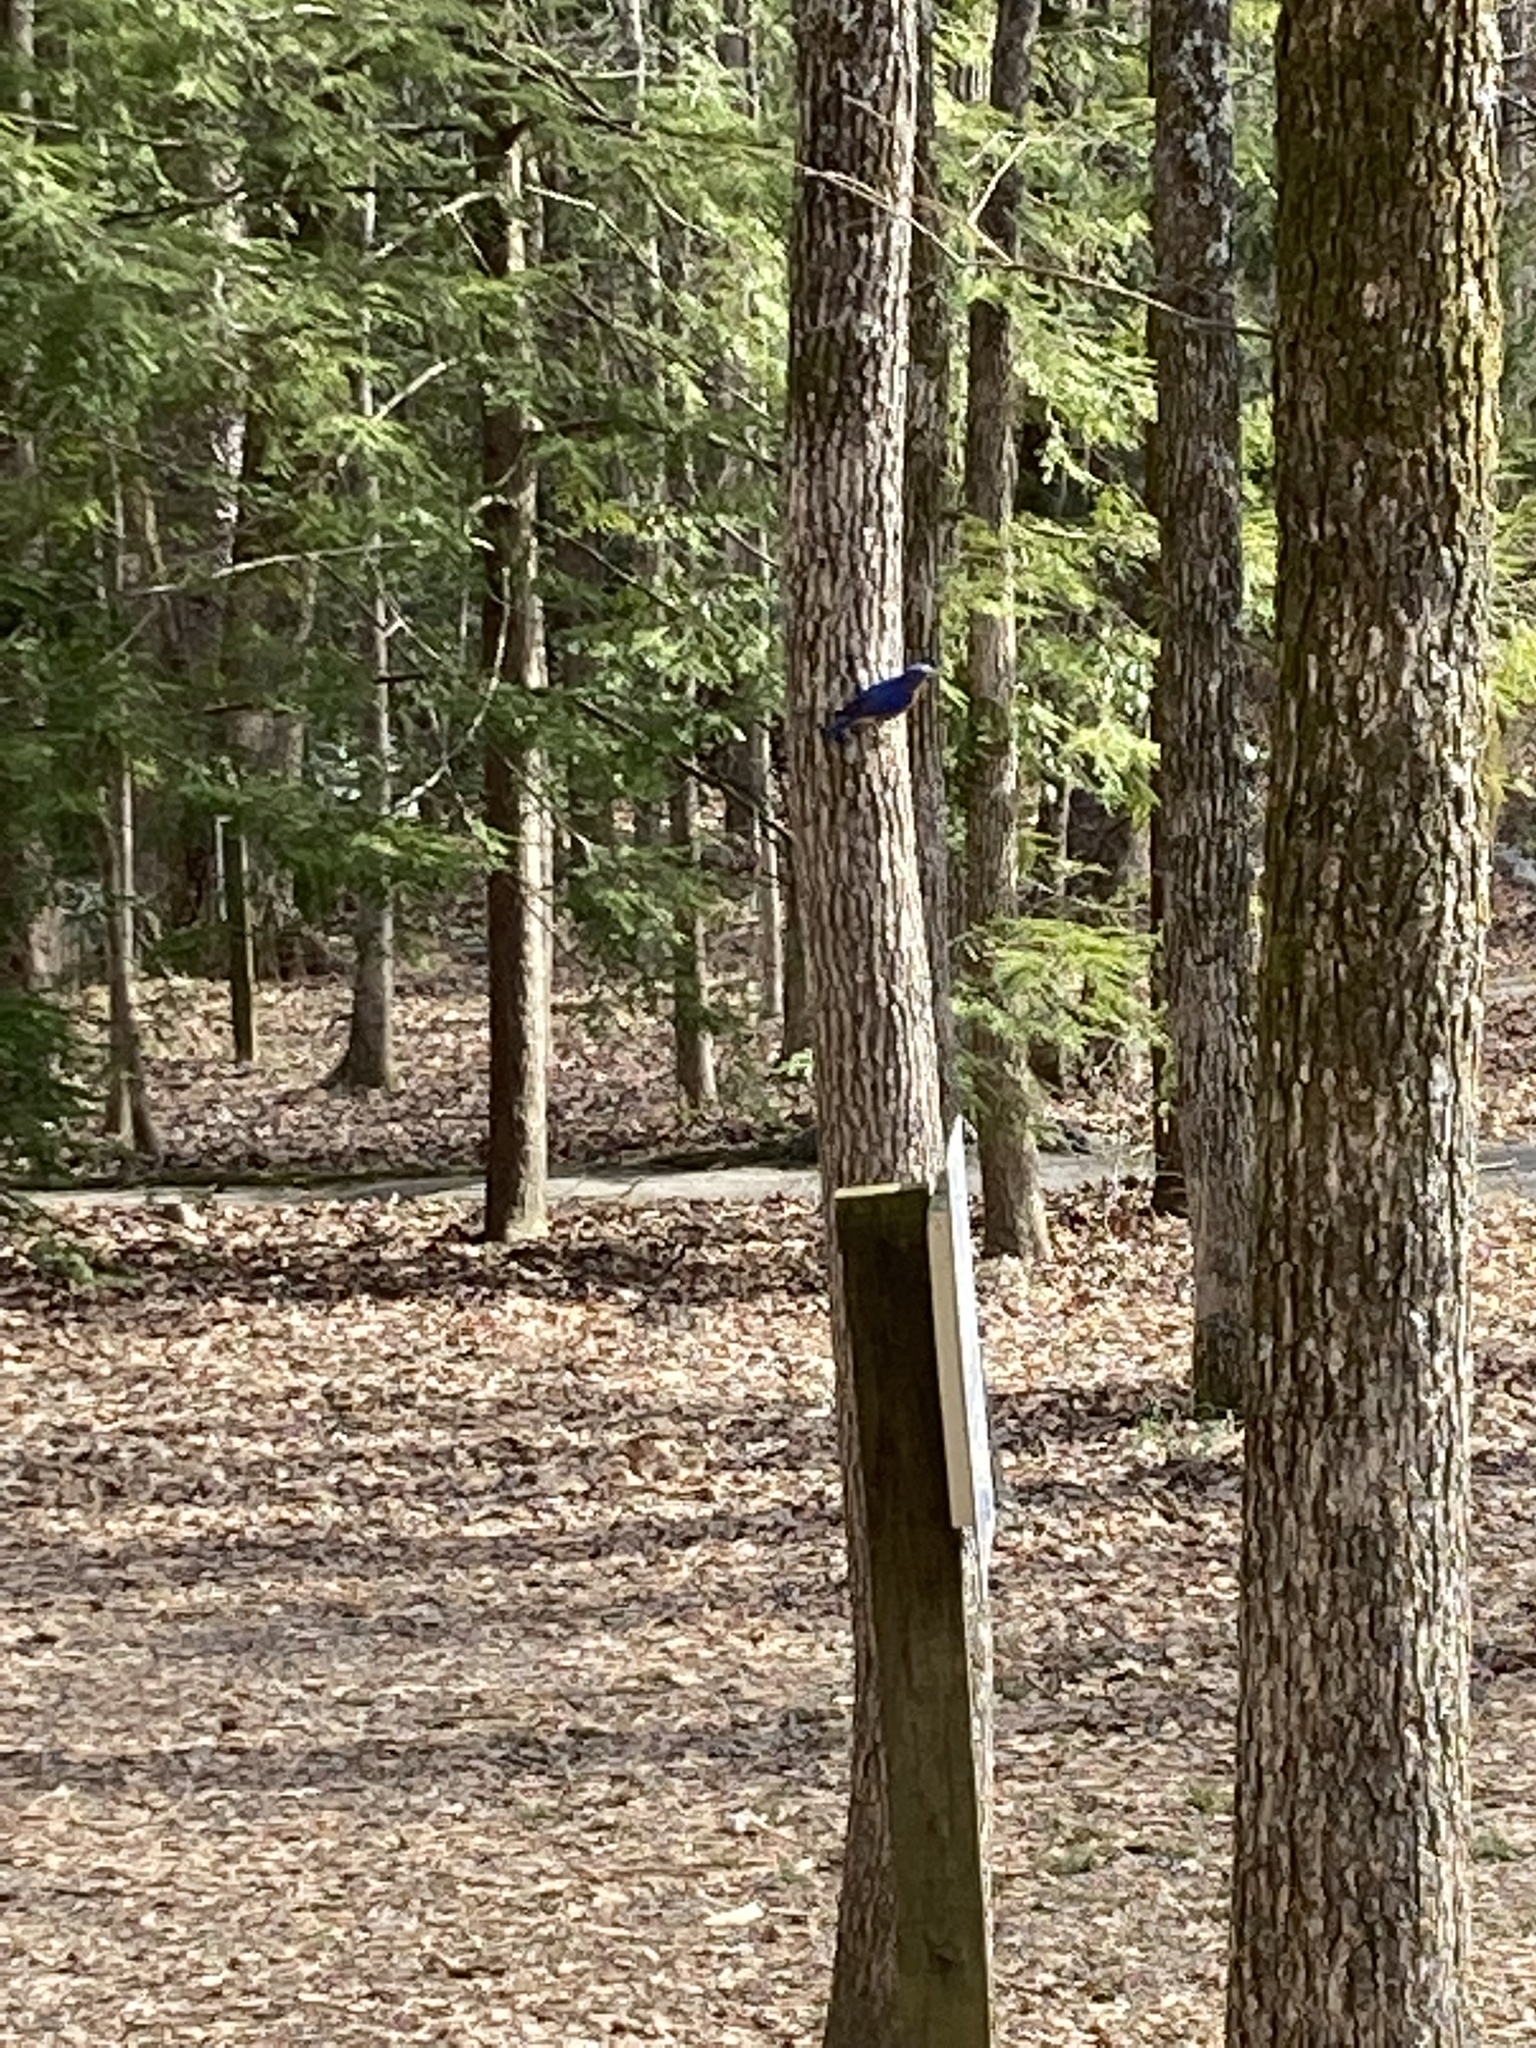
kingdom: Animalia
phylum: Chordata
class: Aves
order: Passeriformes
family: Turdidae
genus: Sialia
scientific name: Sialia sialis
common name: Eastern bluebird
